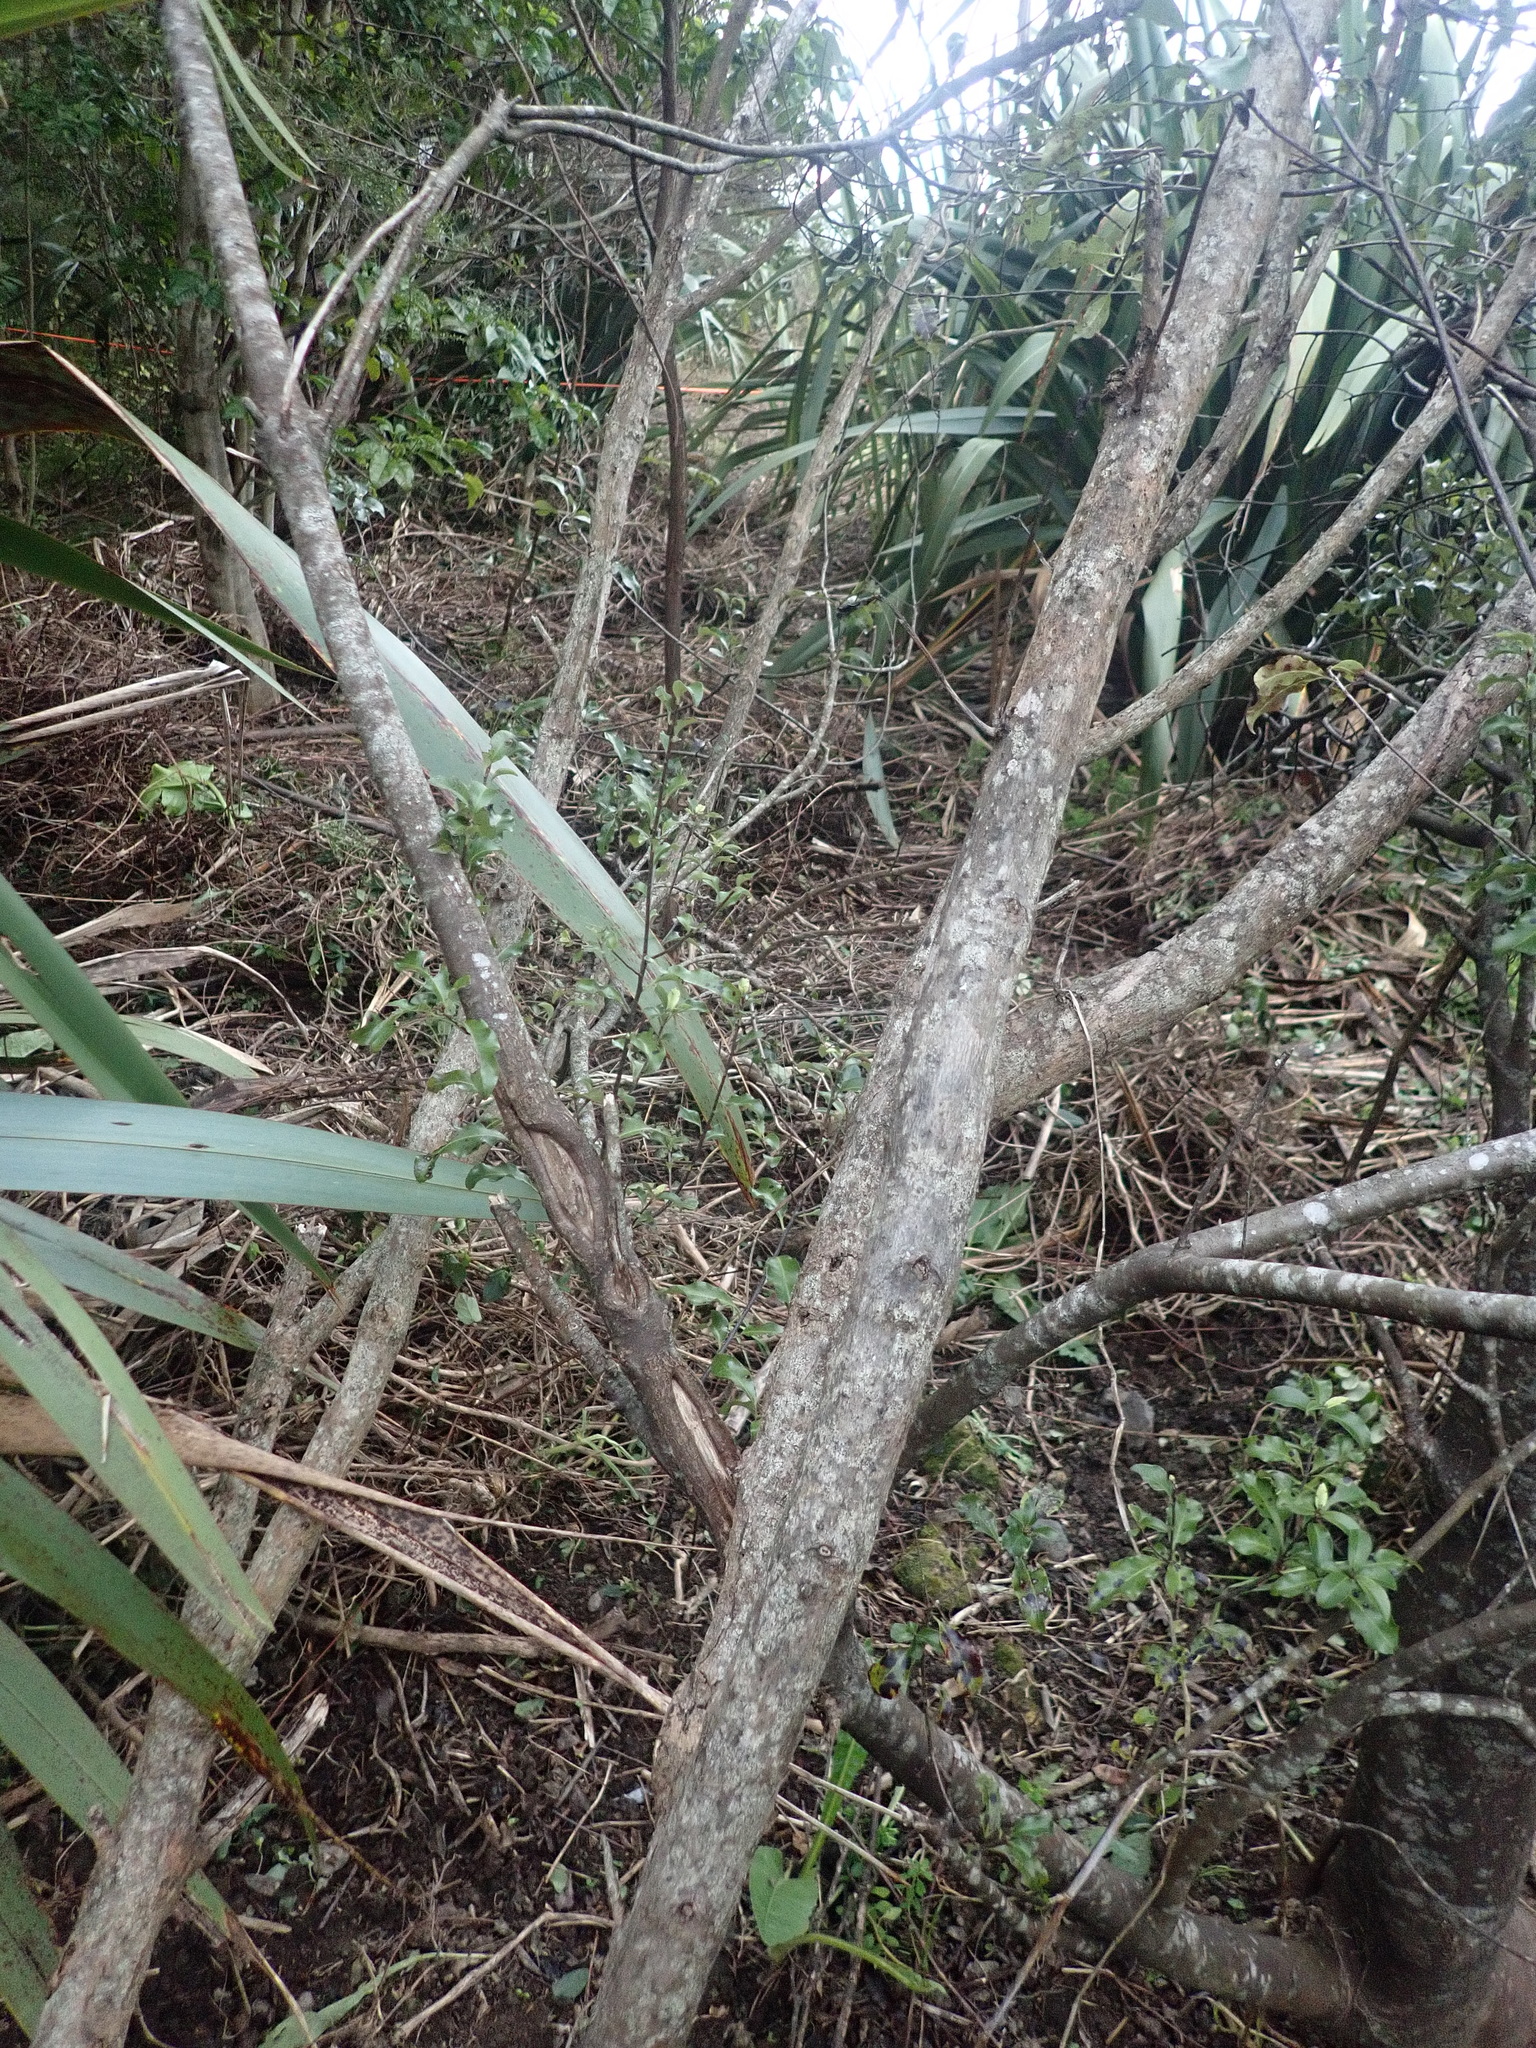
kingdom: Plantae
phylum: Tracheophyta
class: Magnoliopsida
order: Gentianales
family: Rubiaceae
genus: Coprosma
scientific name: Coprosma robusta
